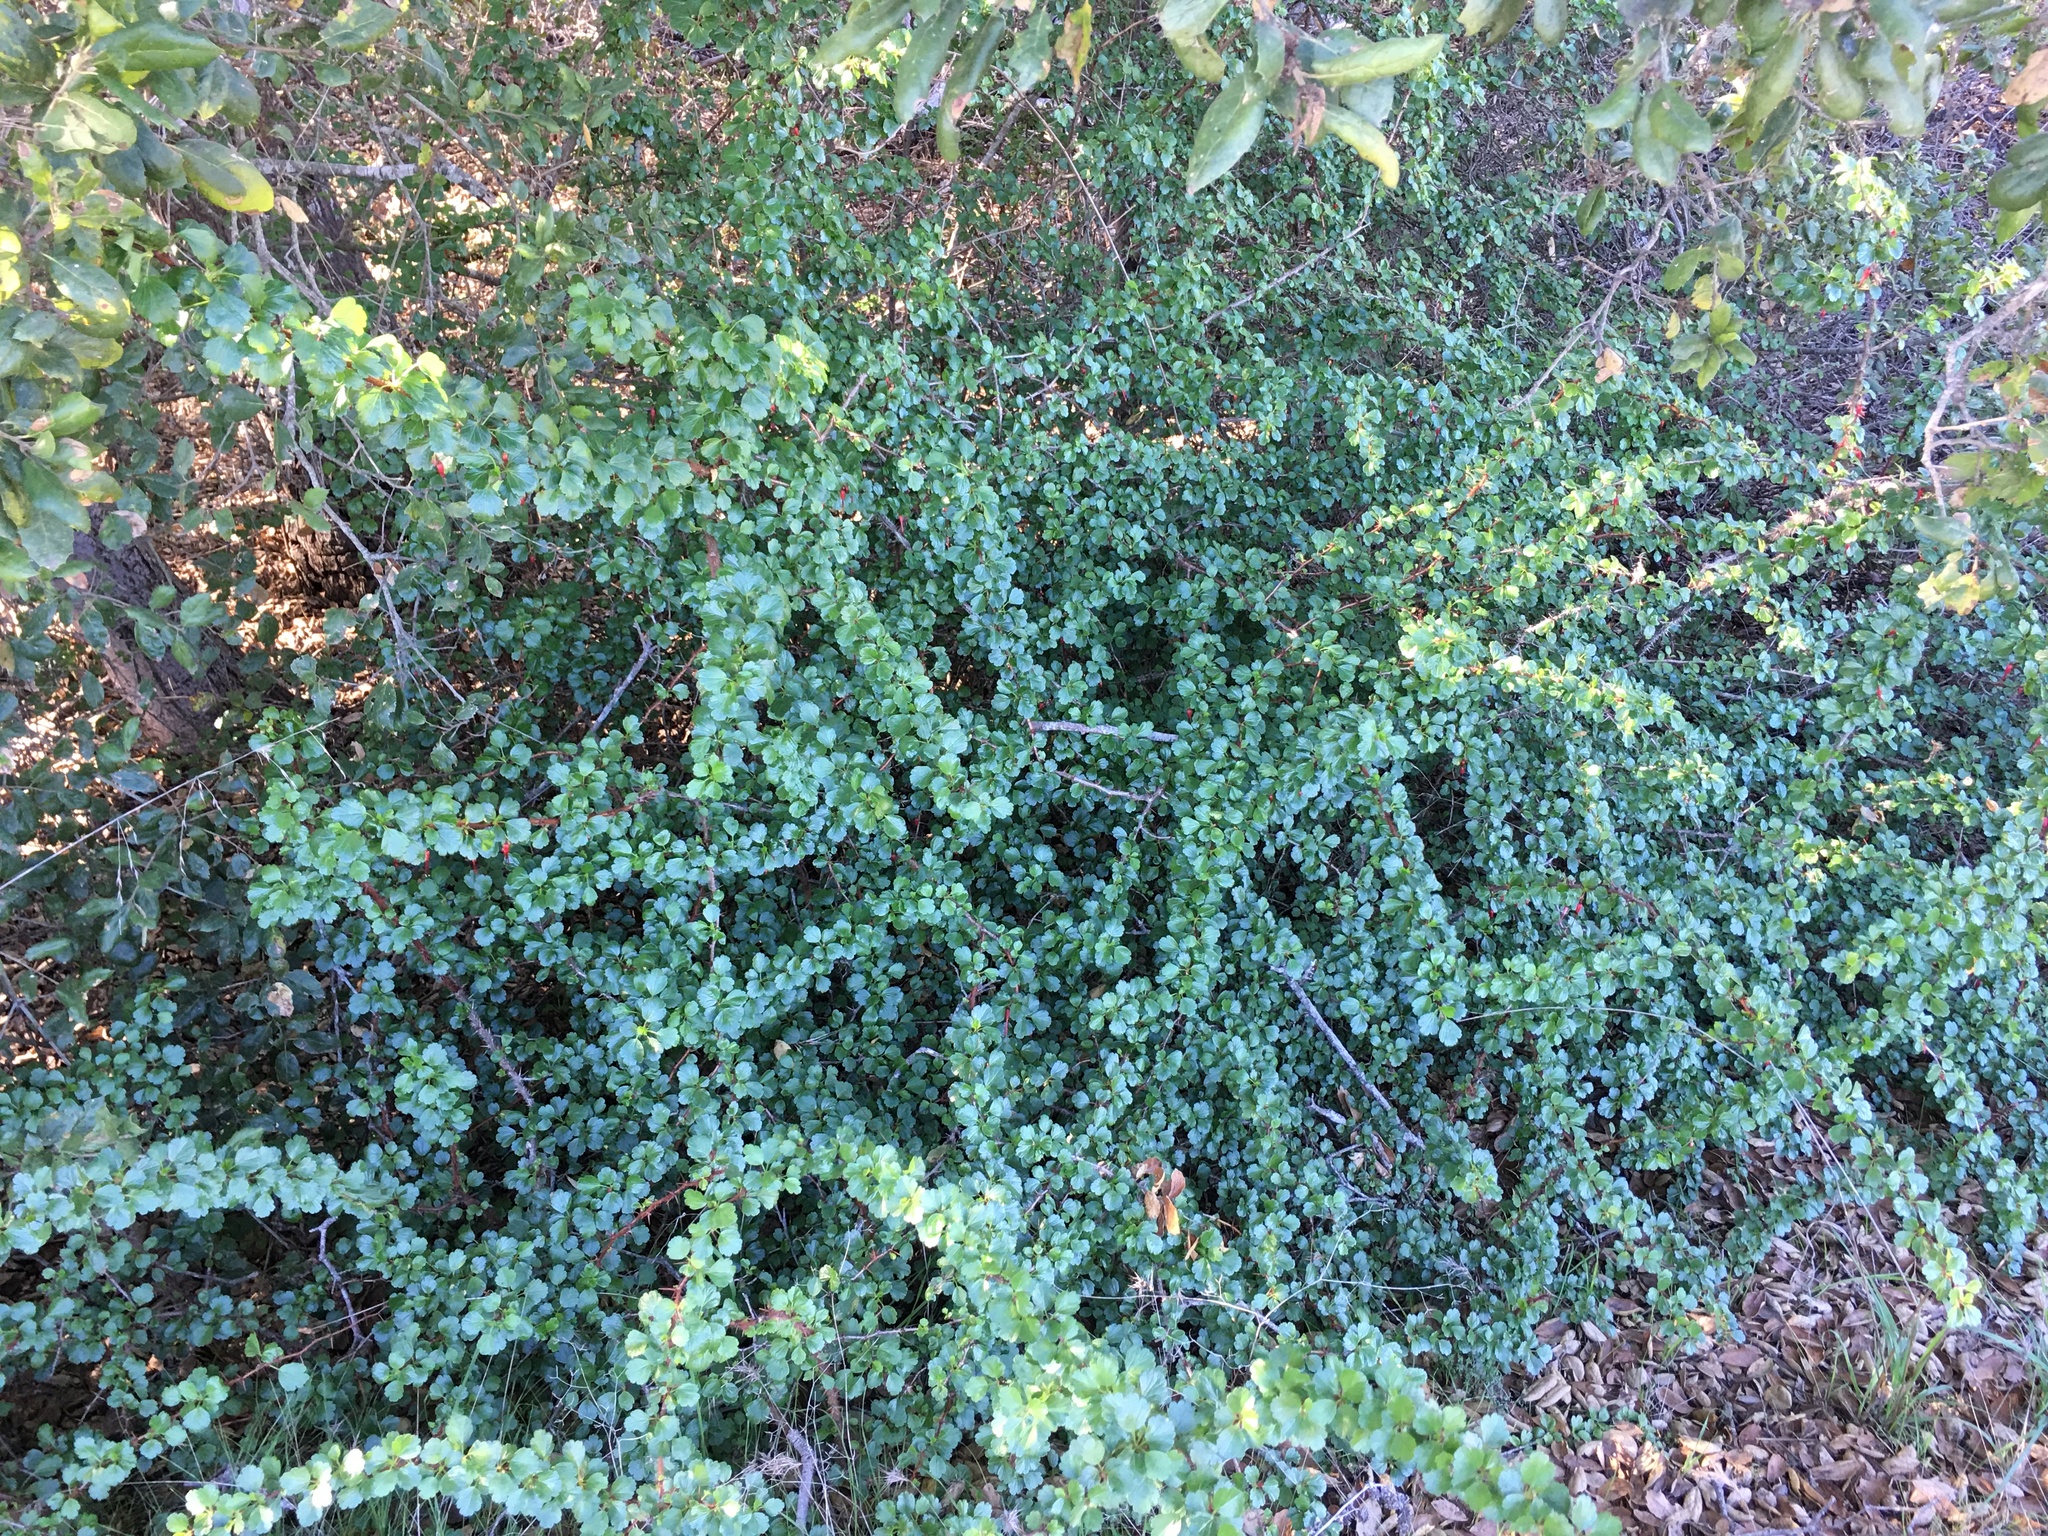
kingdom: Plantae
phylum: Tracheophyta
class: Magnoliopsida
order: Saxifragales
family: Grossulariaceae
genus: Ribes
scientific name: Ribes speciosum
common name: Fuchsia-flower gooseberry
